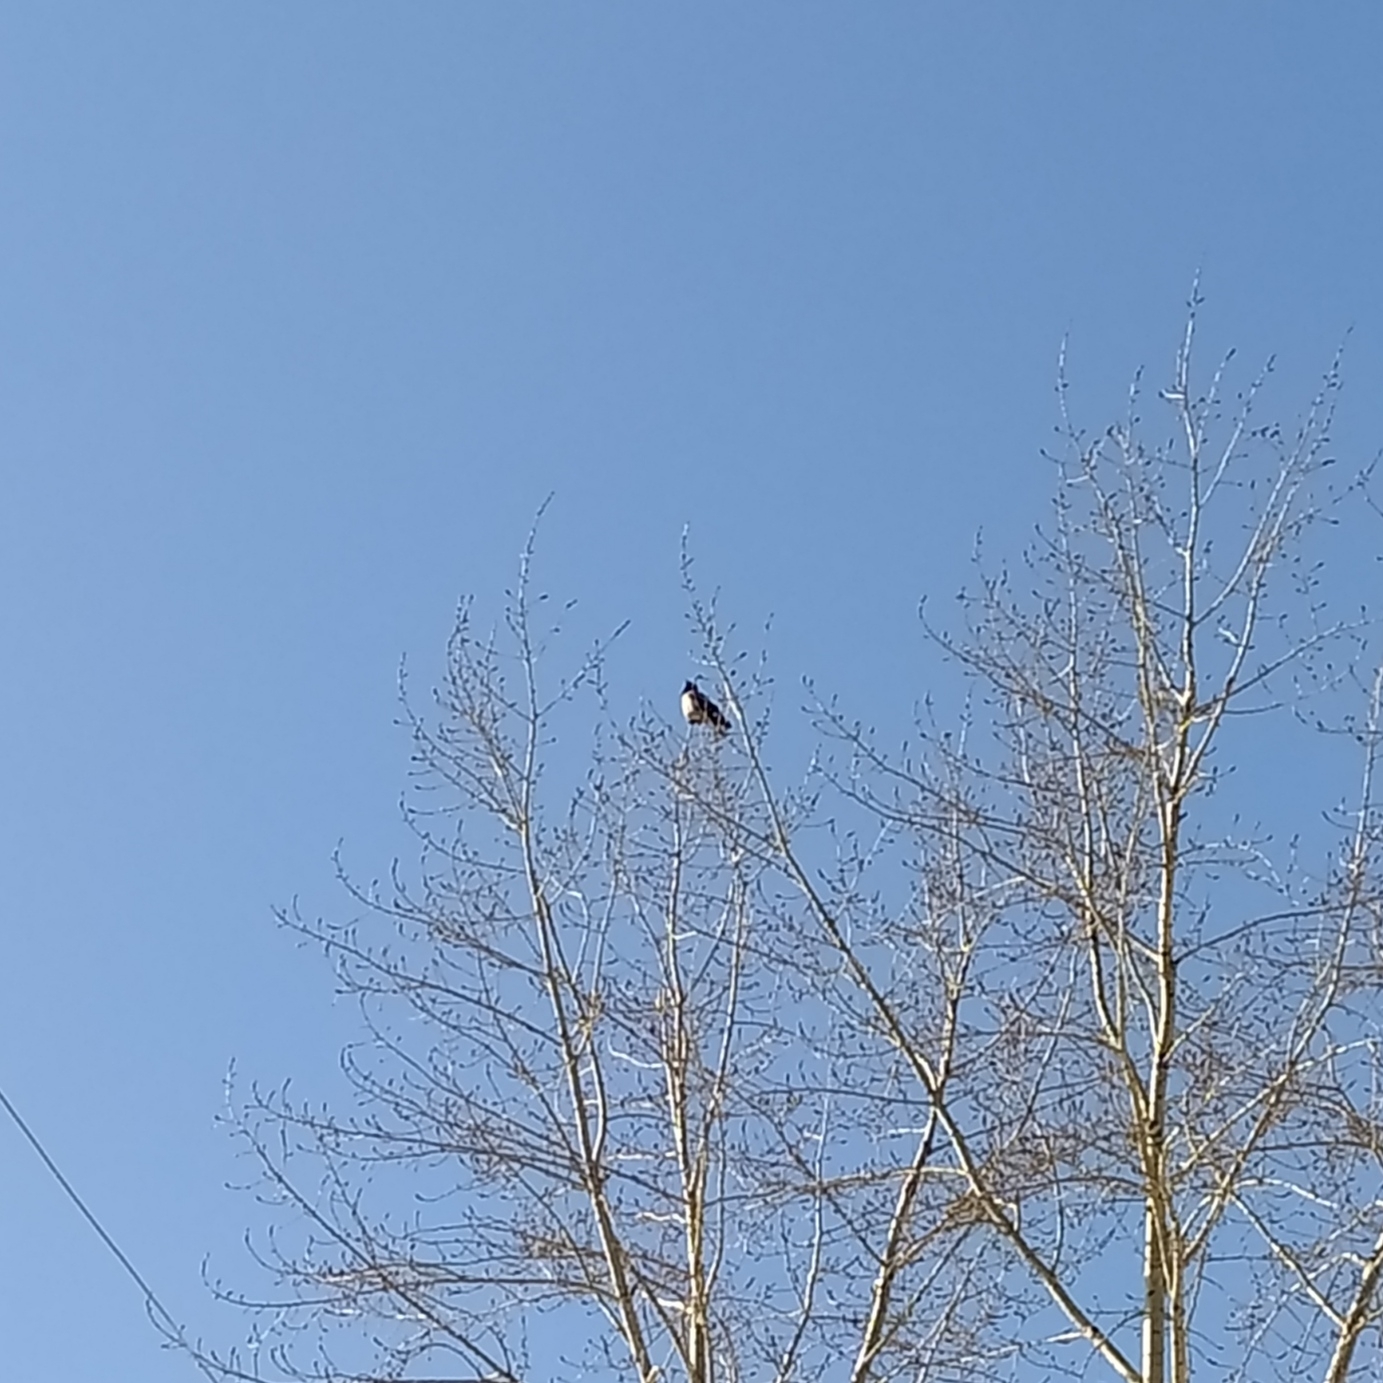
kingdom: Animalia
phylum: Chordata
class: Aves
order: Passeriformes
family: Corvidae
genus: Corvus
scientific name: Corvus cornix
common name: Hooded crow
